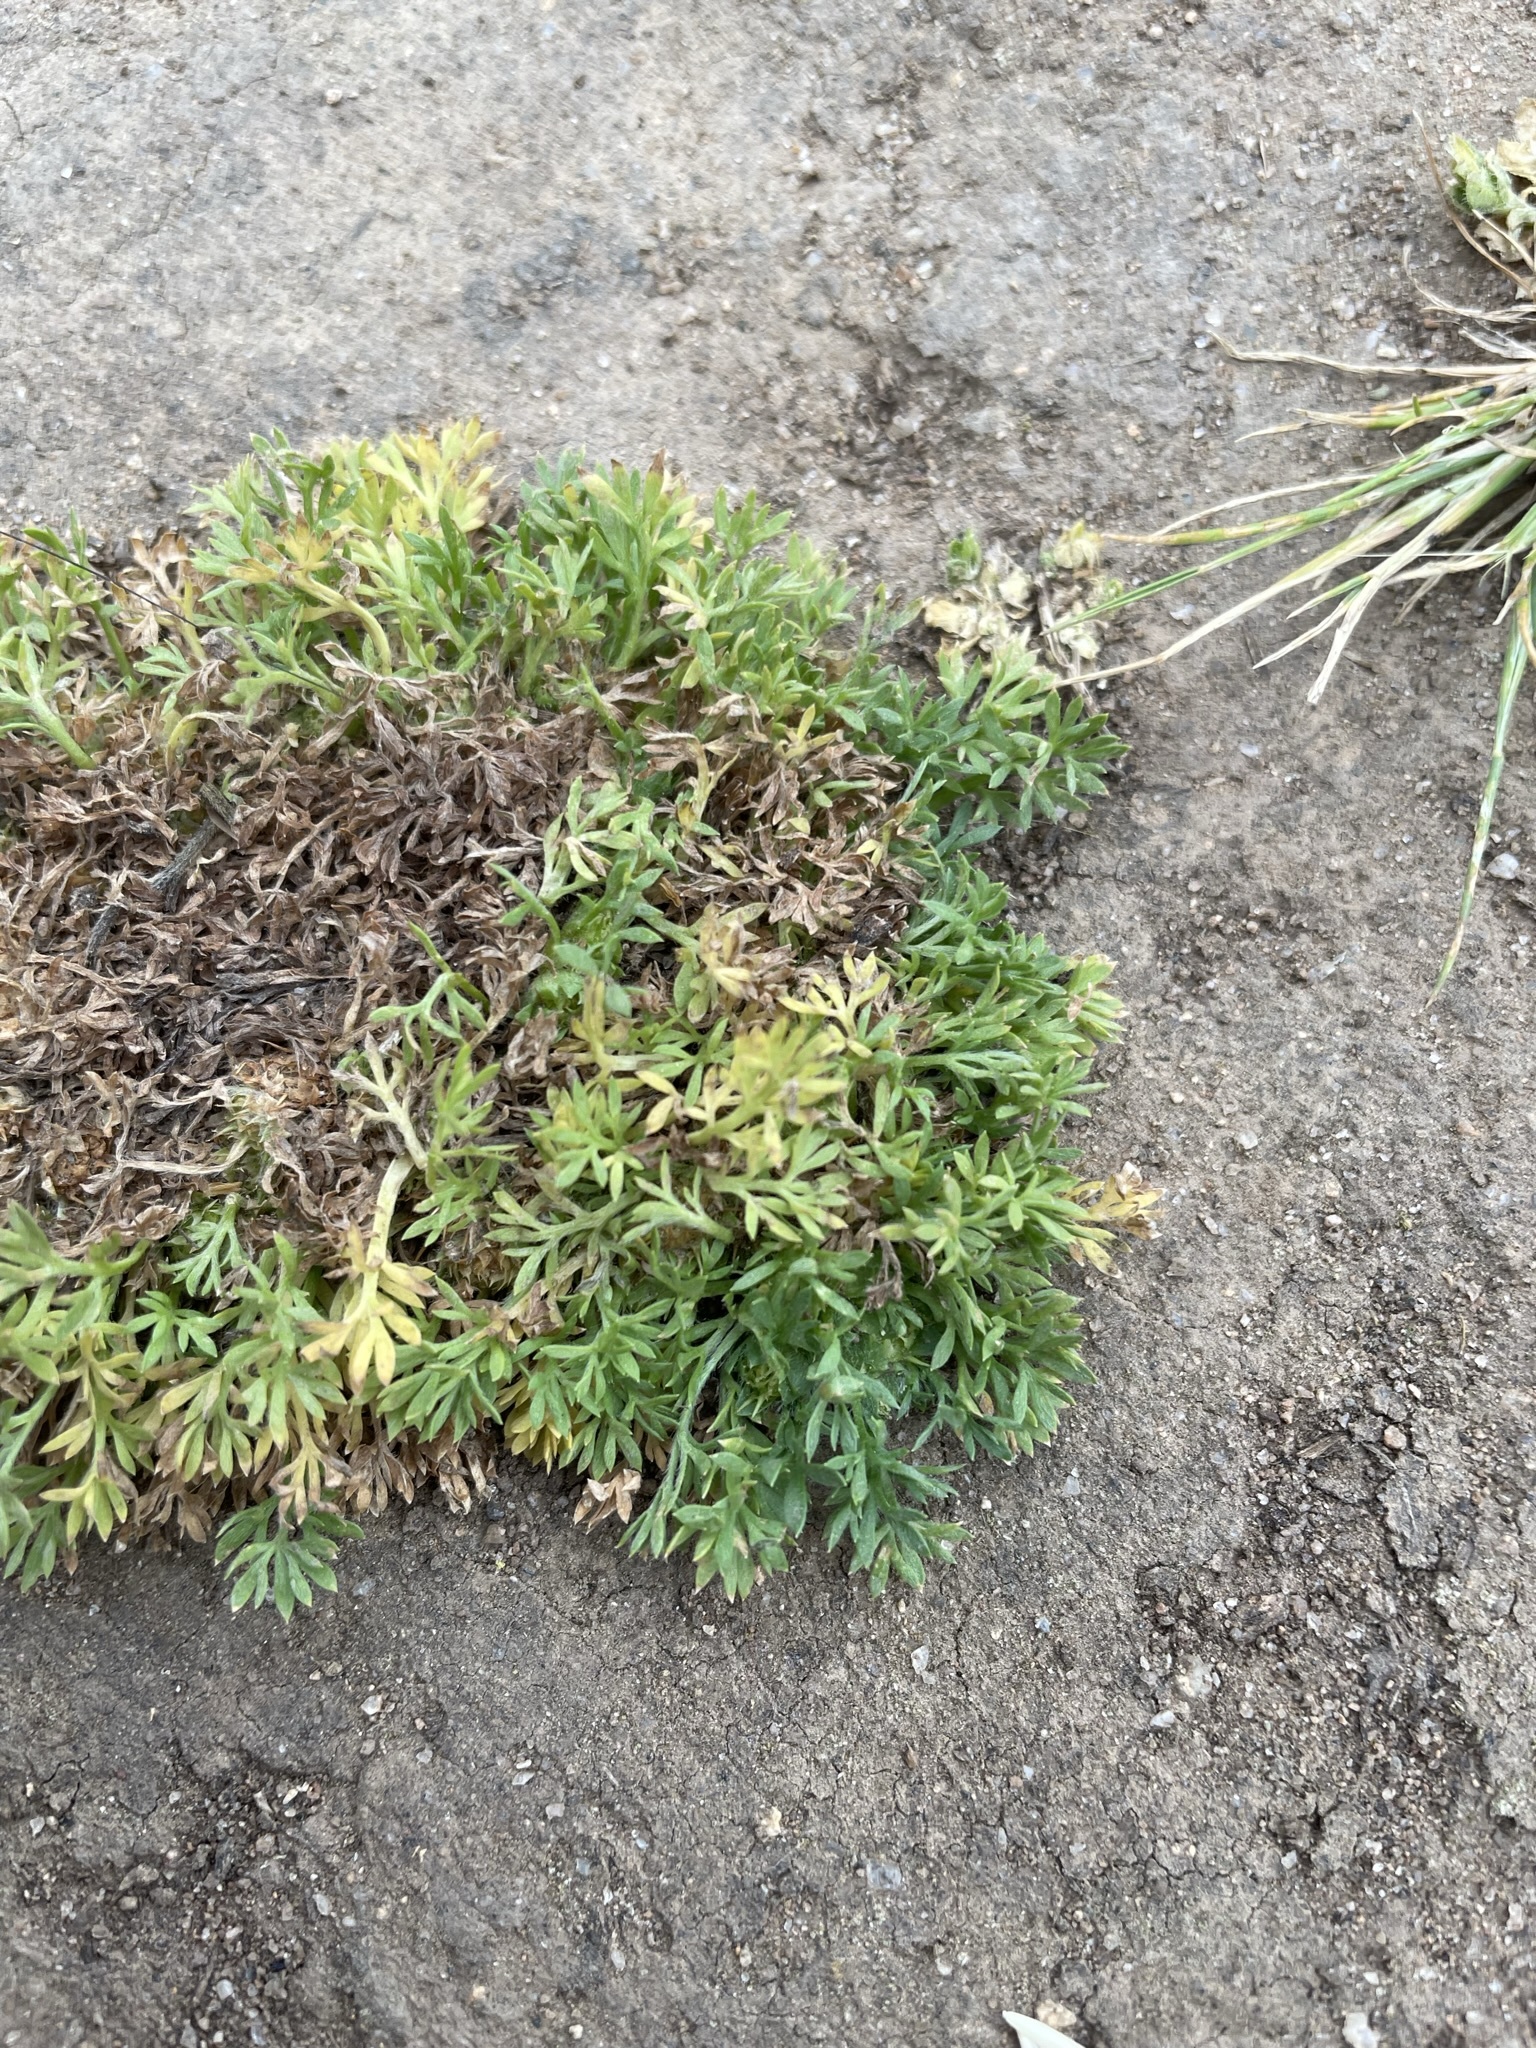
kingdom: Plantae
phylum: Tracheophyta
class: Magnoliopsida
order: Asterales
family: Asteraceae
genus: Soliva
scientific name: Soliva sessilis
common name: Field burrweed
